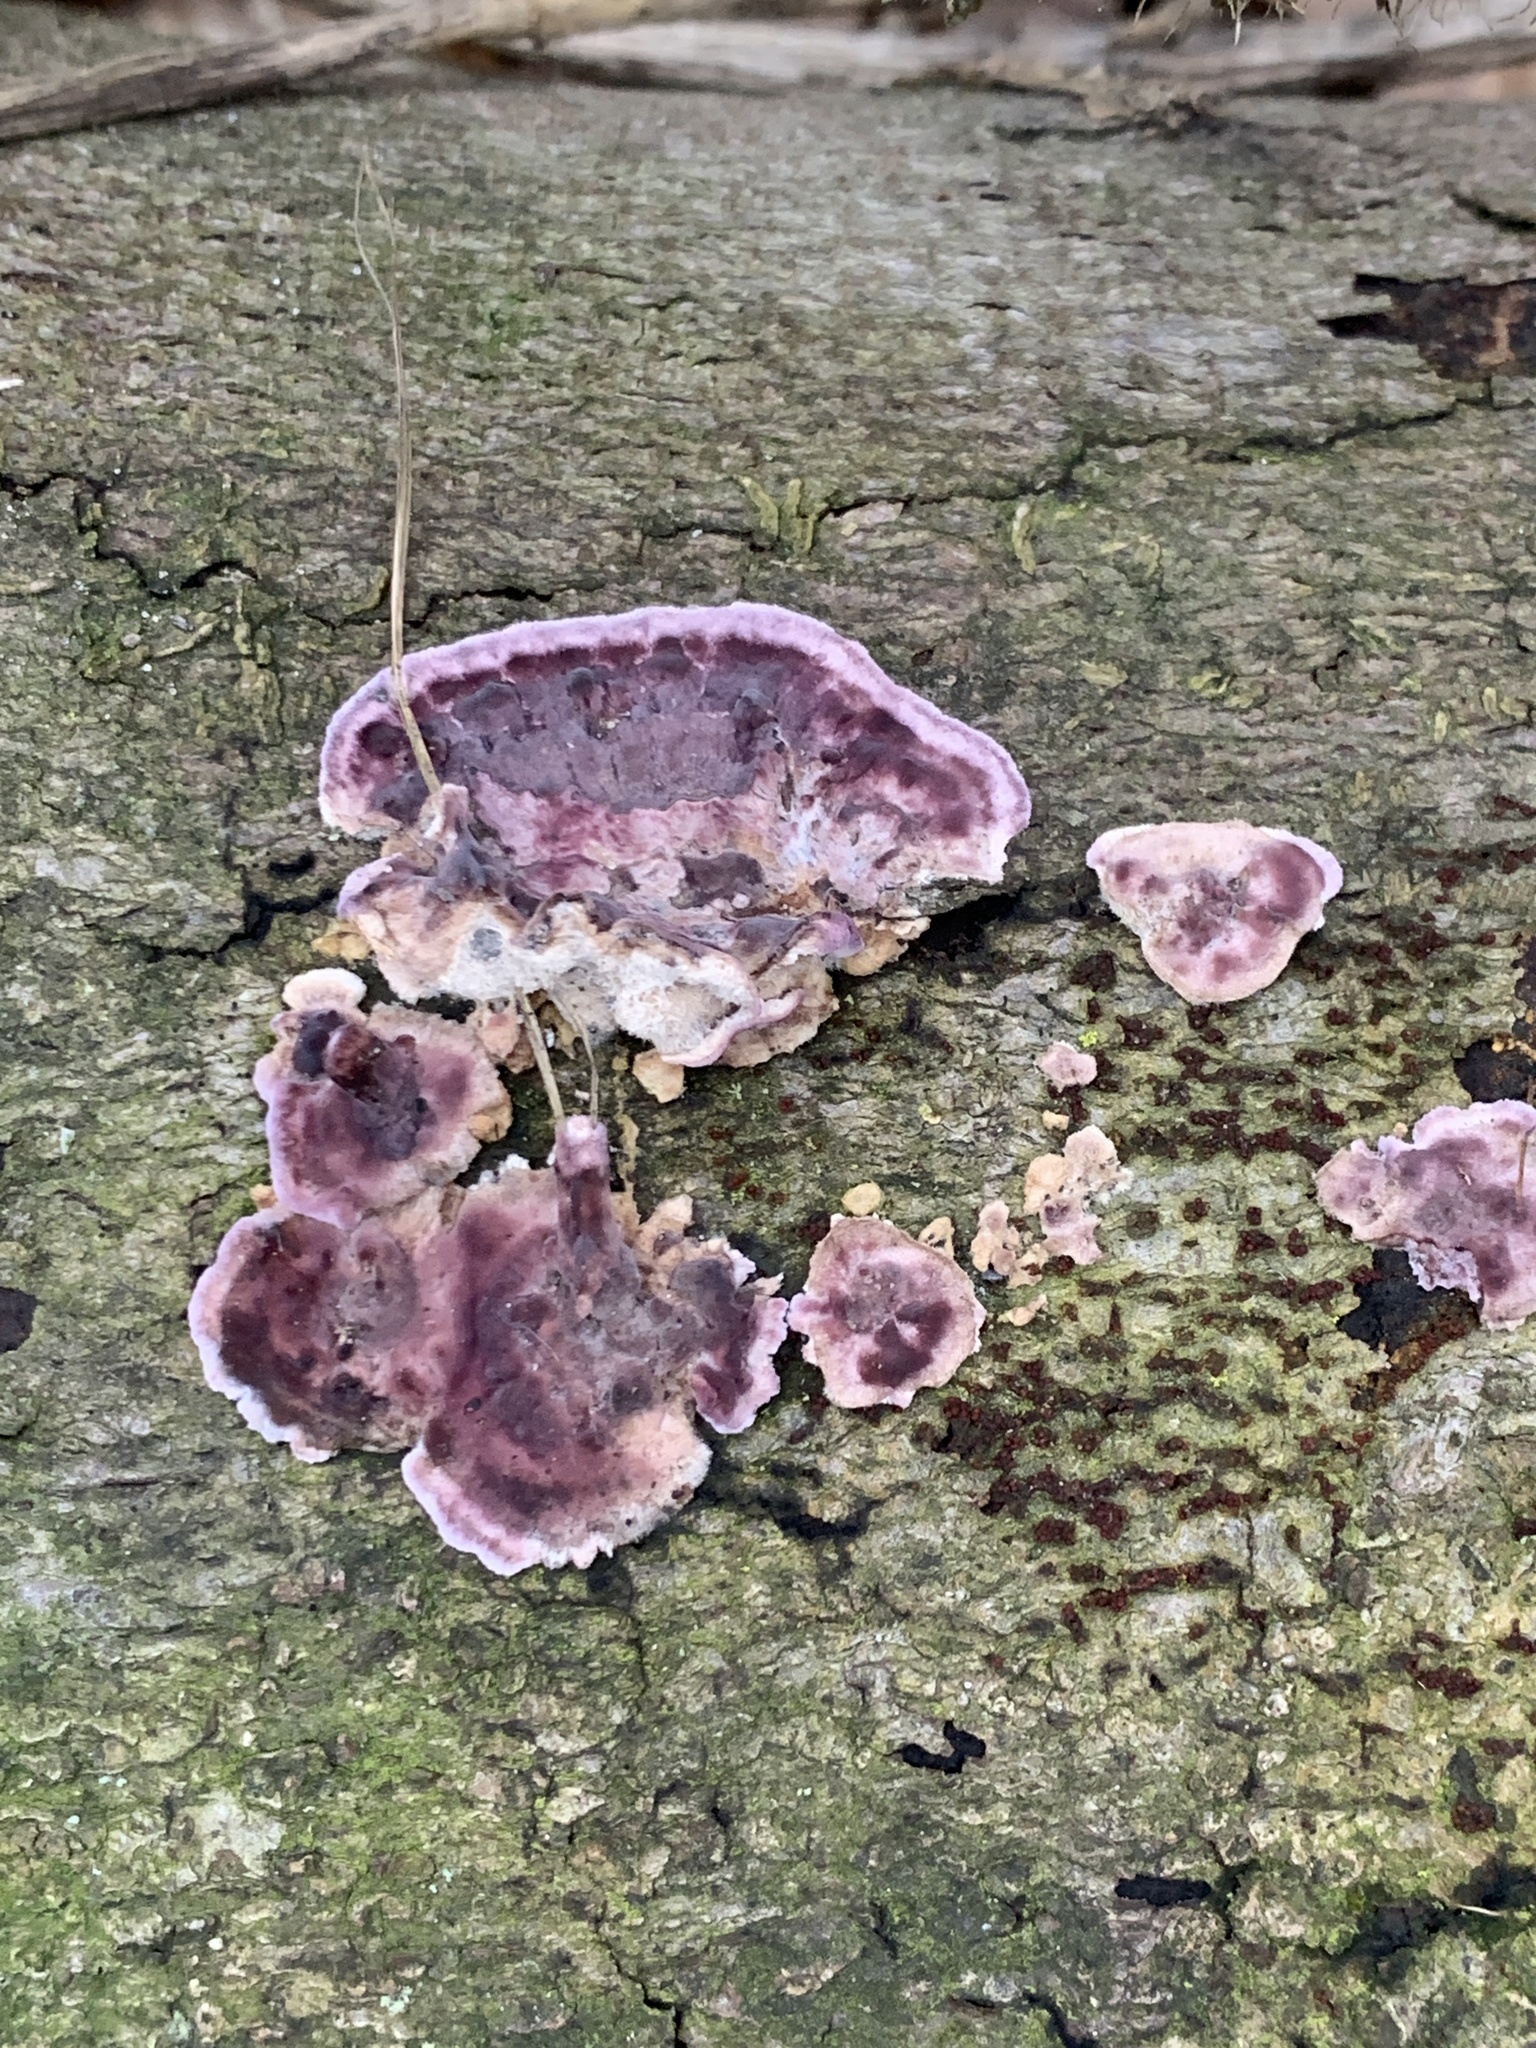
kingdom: Fungi
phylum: Basidiomycota
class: Agaricomycetes
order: Agaricales
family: Cyphellaceae
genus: Chondrostereum
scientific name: Chondrostereum purpureum
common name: Silver leaf disease
